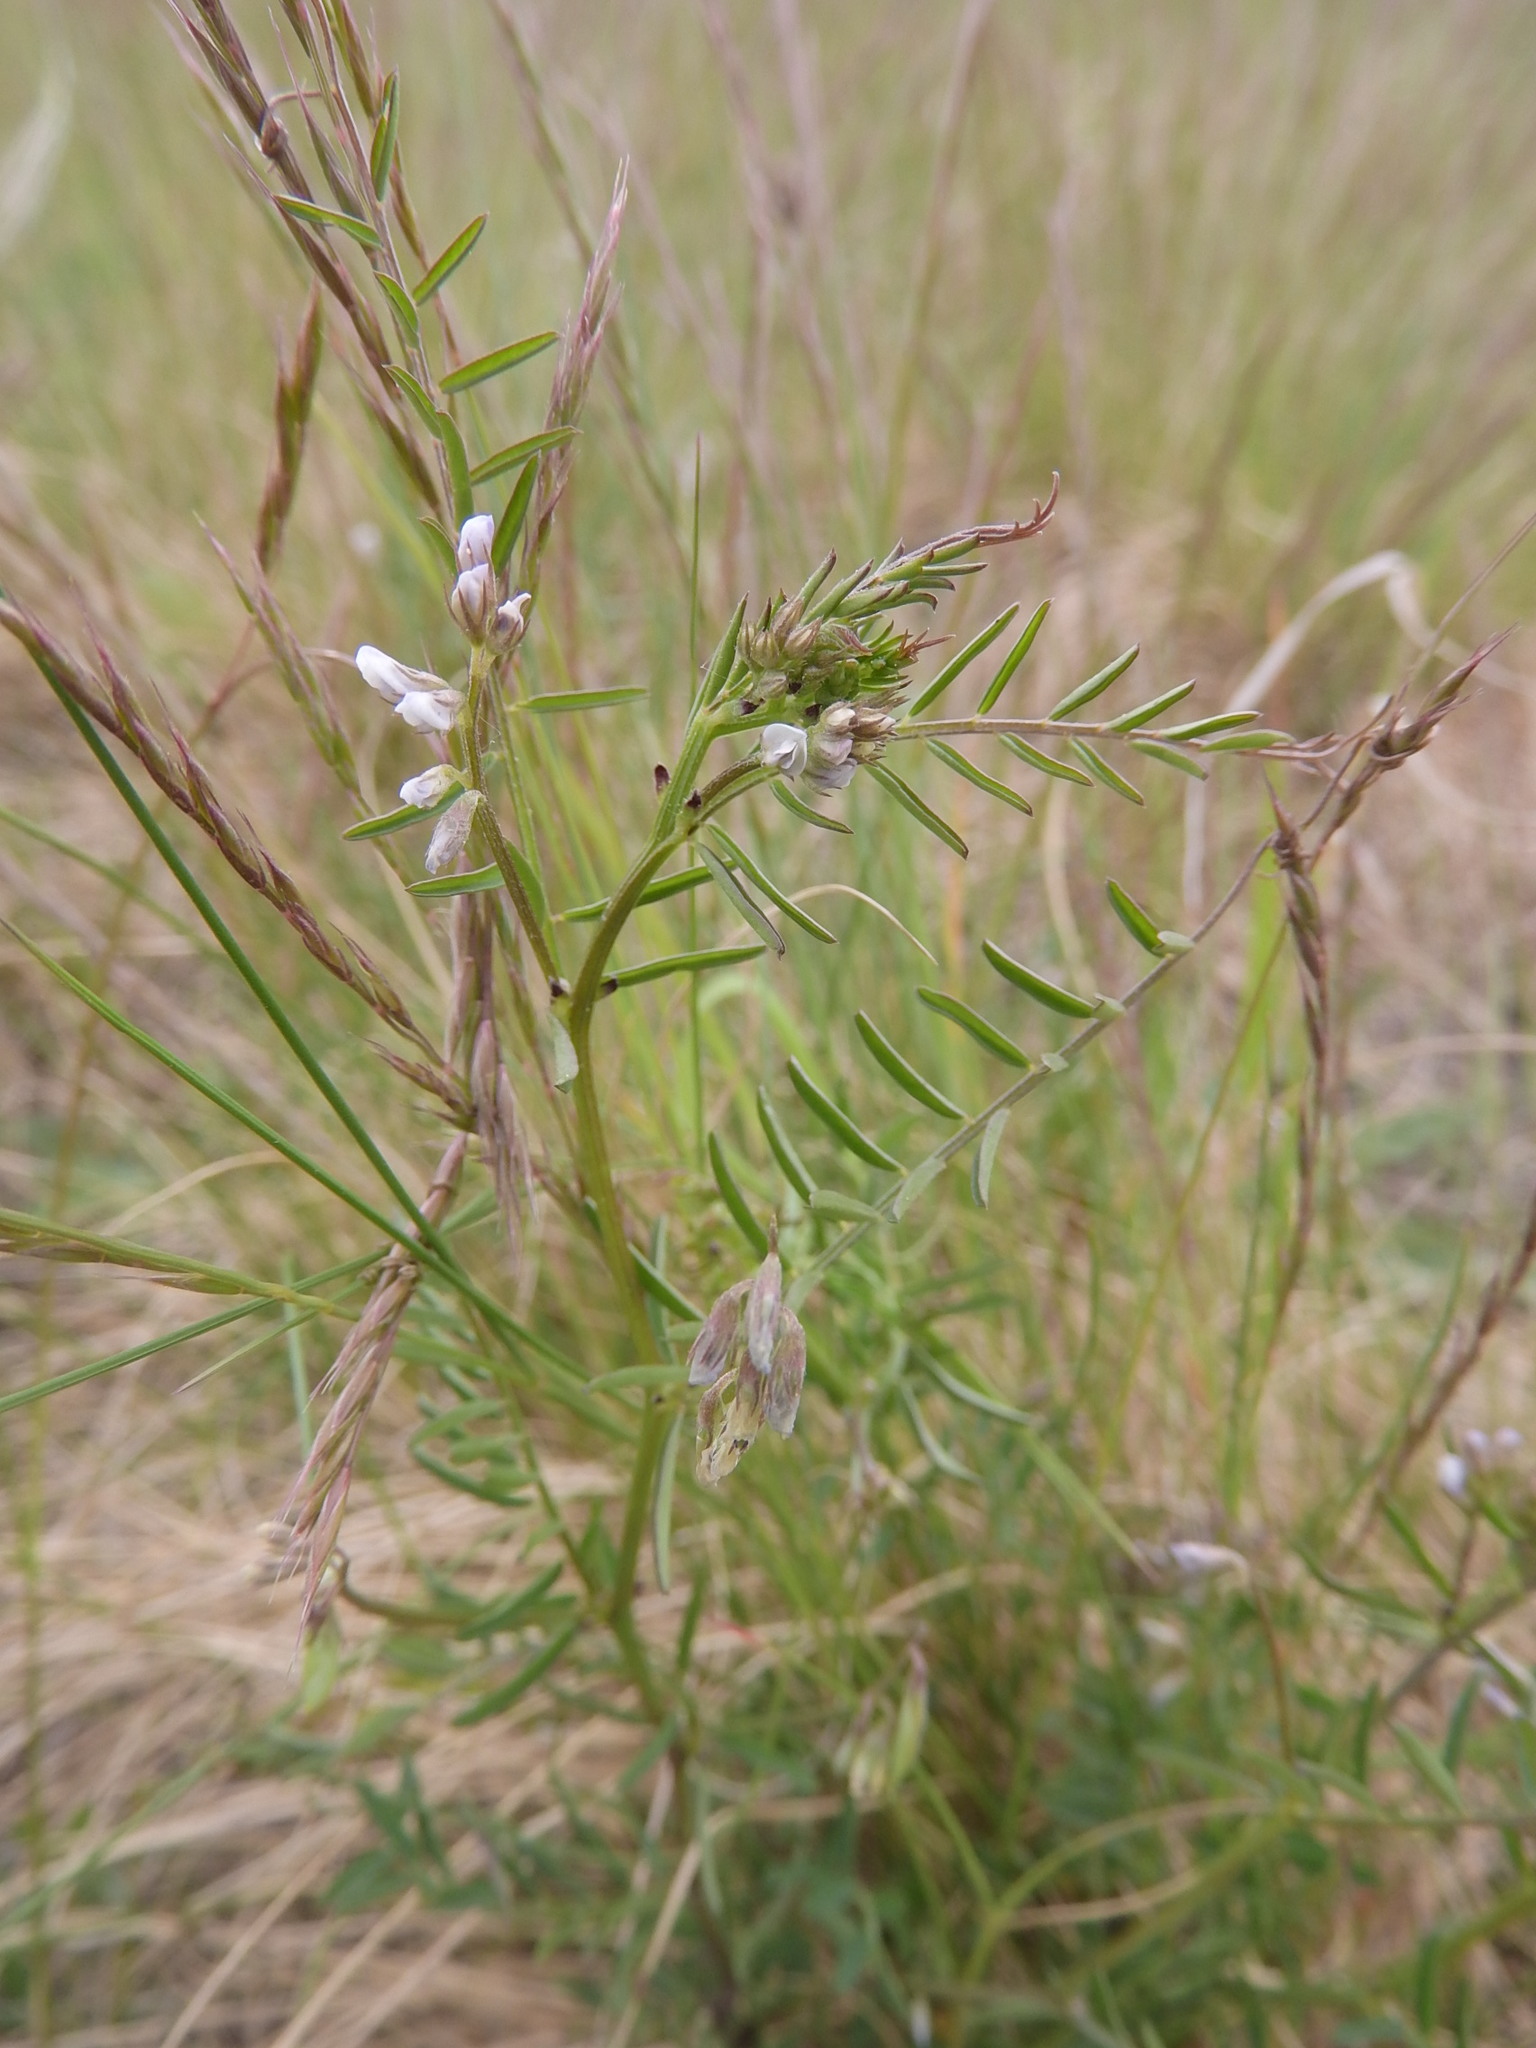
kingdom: Plantae
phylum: Tracheophyta
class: Magnoliopsida
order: Fabales
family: Fabaceae
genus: Vicia
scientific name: Vicia hirsuta
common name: Tiny vetch
